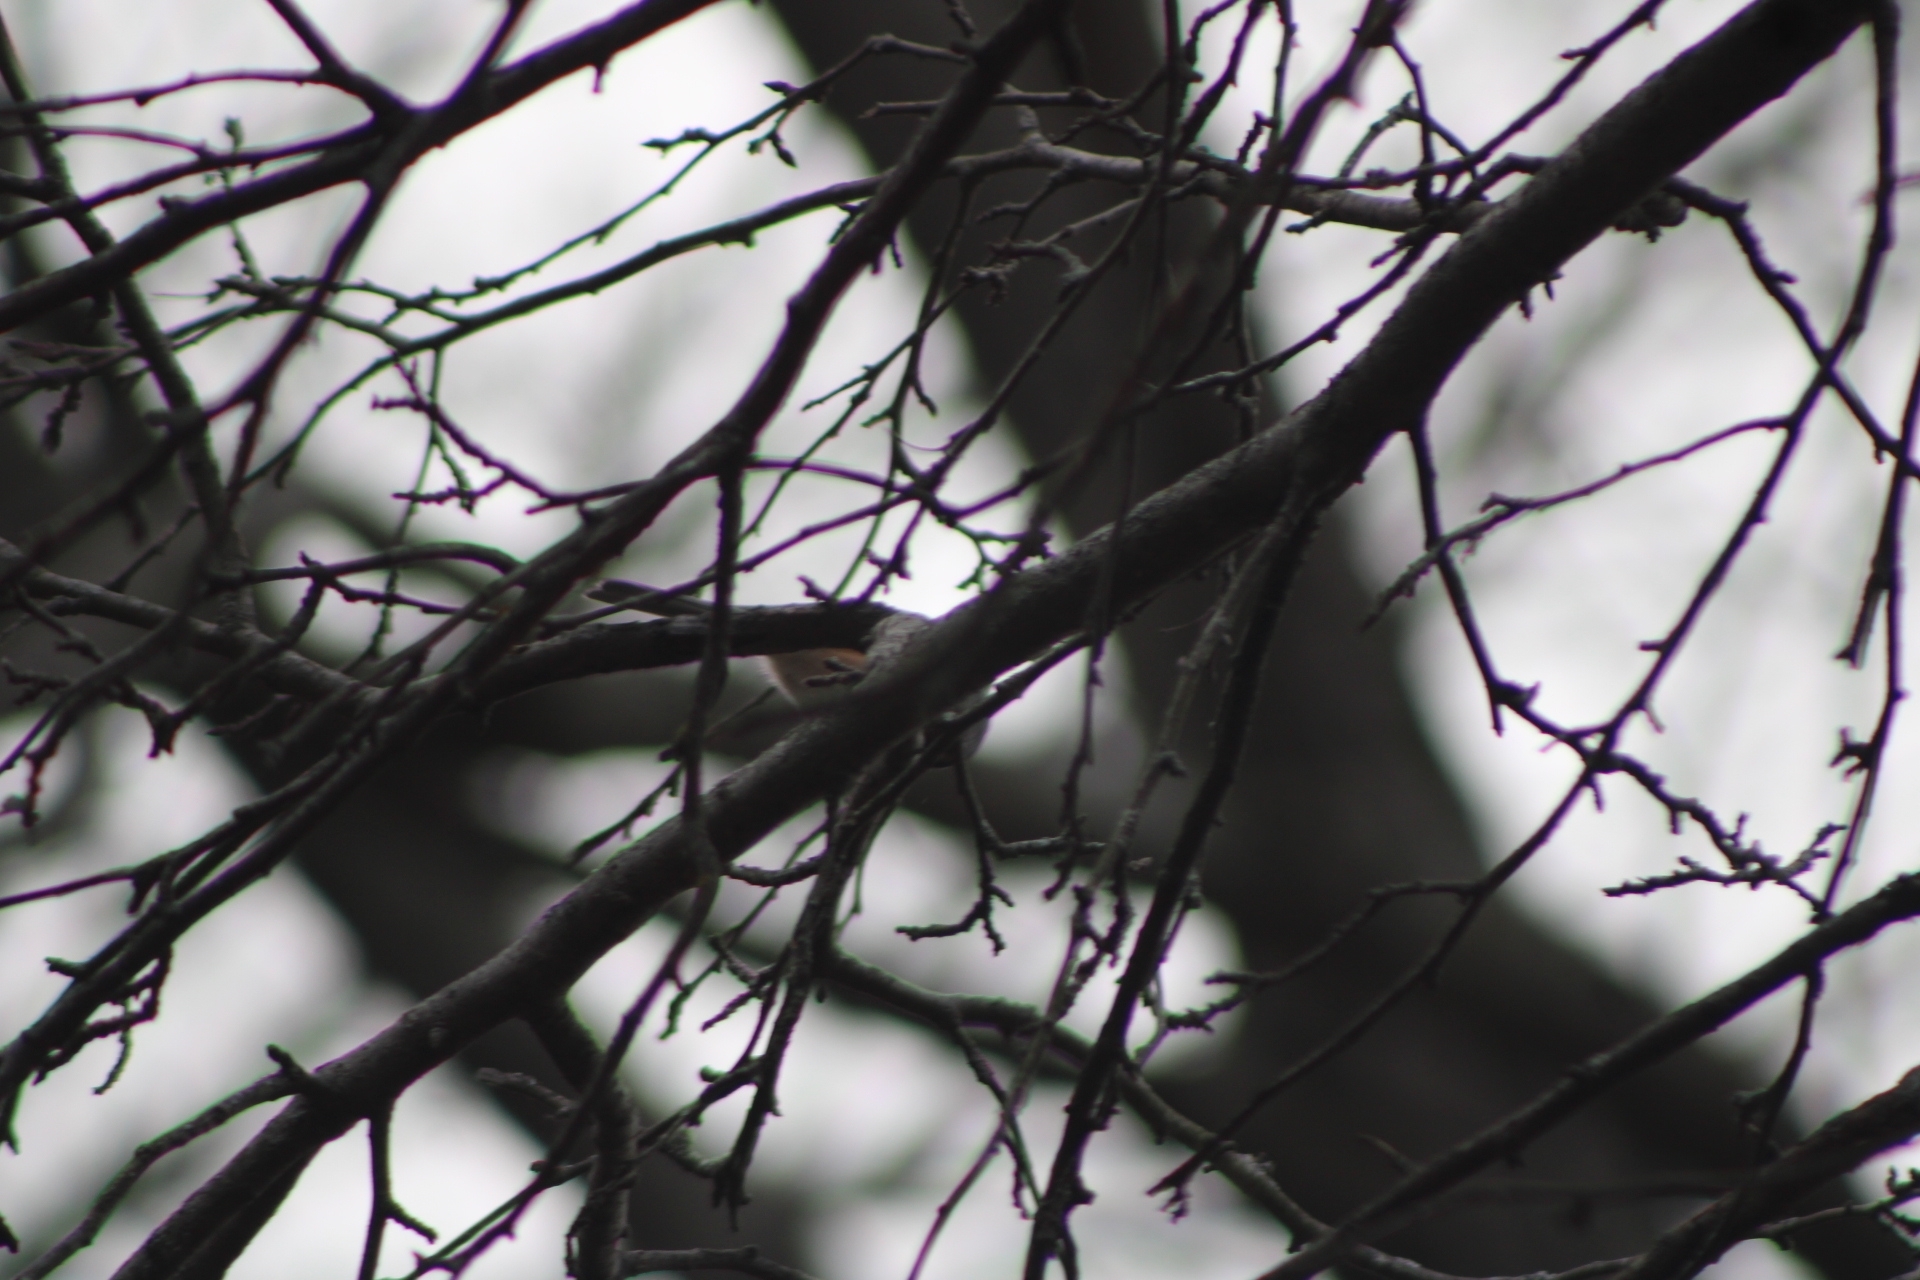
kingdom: Animalia
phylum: Chordata
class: Aves
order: Passeriformes
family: Paridae
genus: Baeolophus
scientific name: Baeolophus bicolor
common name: Tufted titmouse
